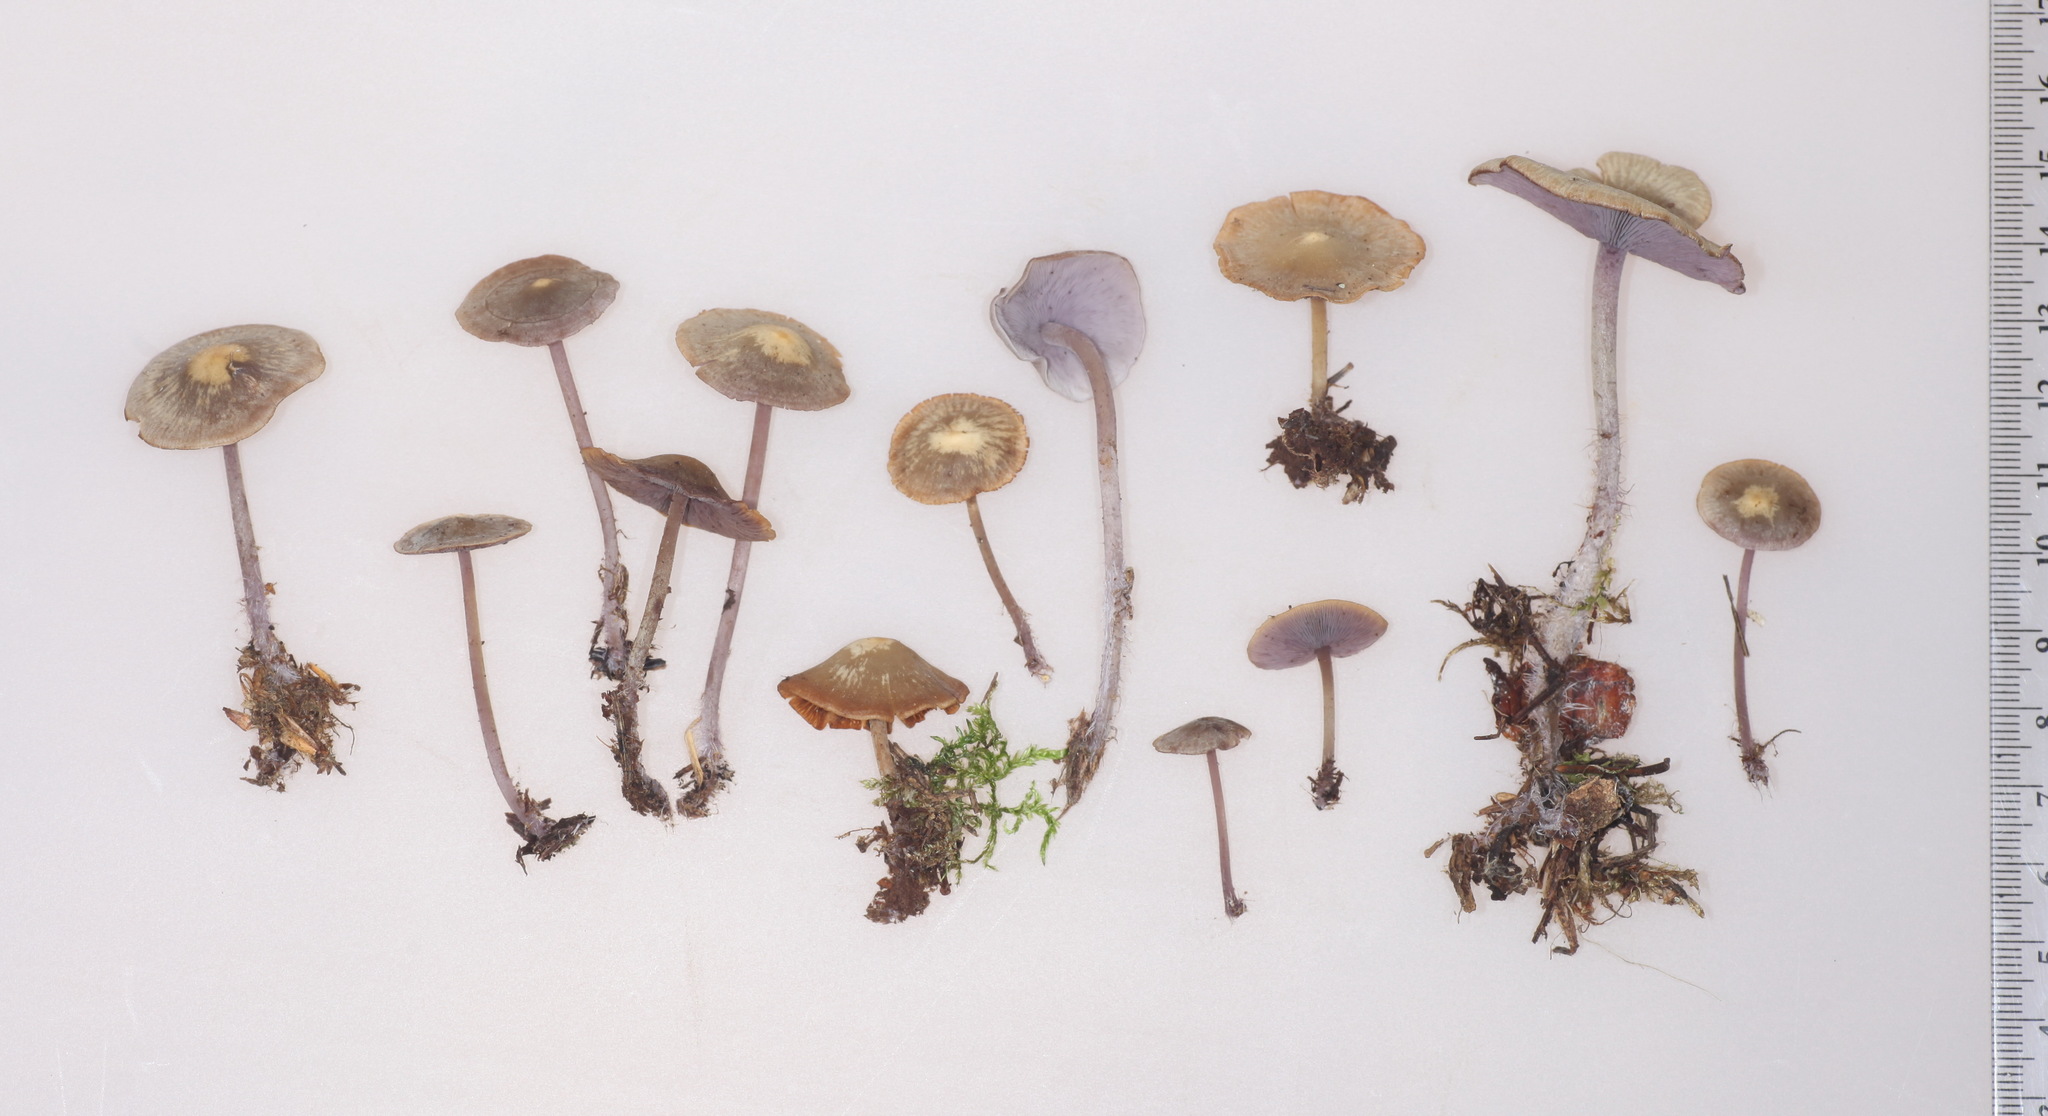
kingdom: Fungi
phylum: Basidiomycota
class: Agaricomycetes
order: Agaricales
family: Marasmiaceae
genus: Baeospora
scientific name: Baeospora myriadophylla
